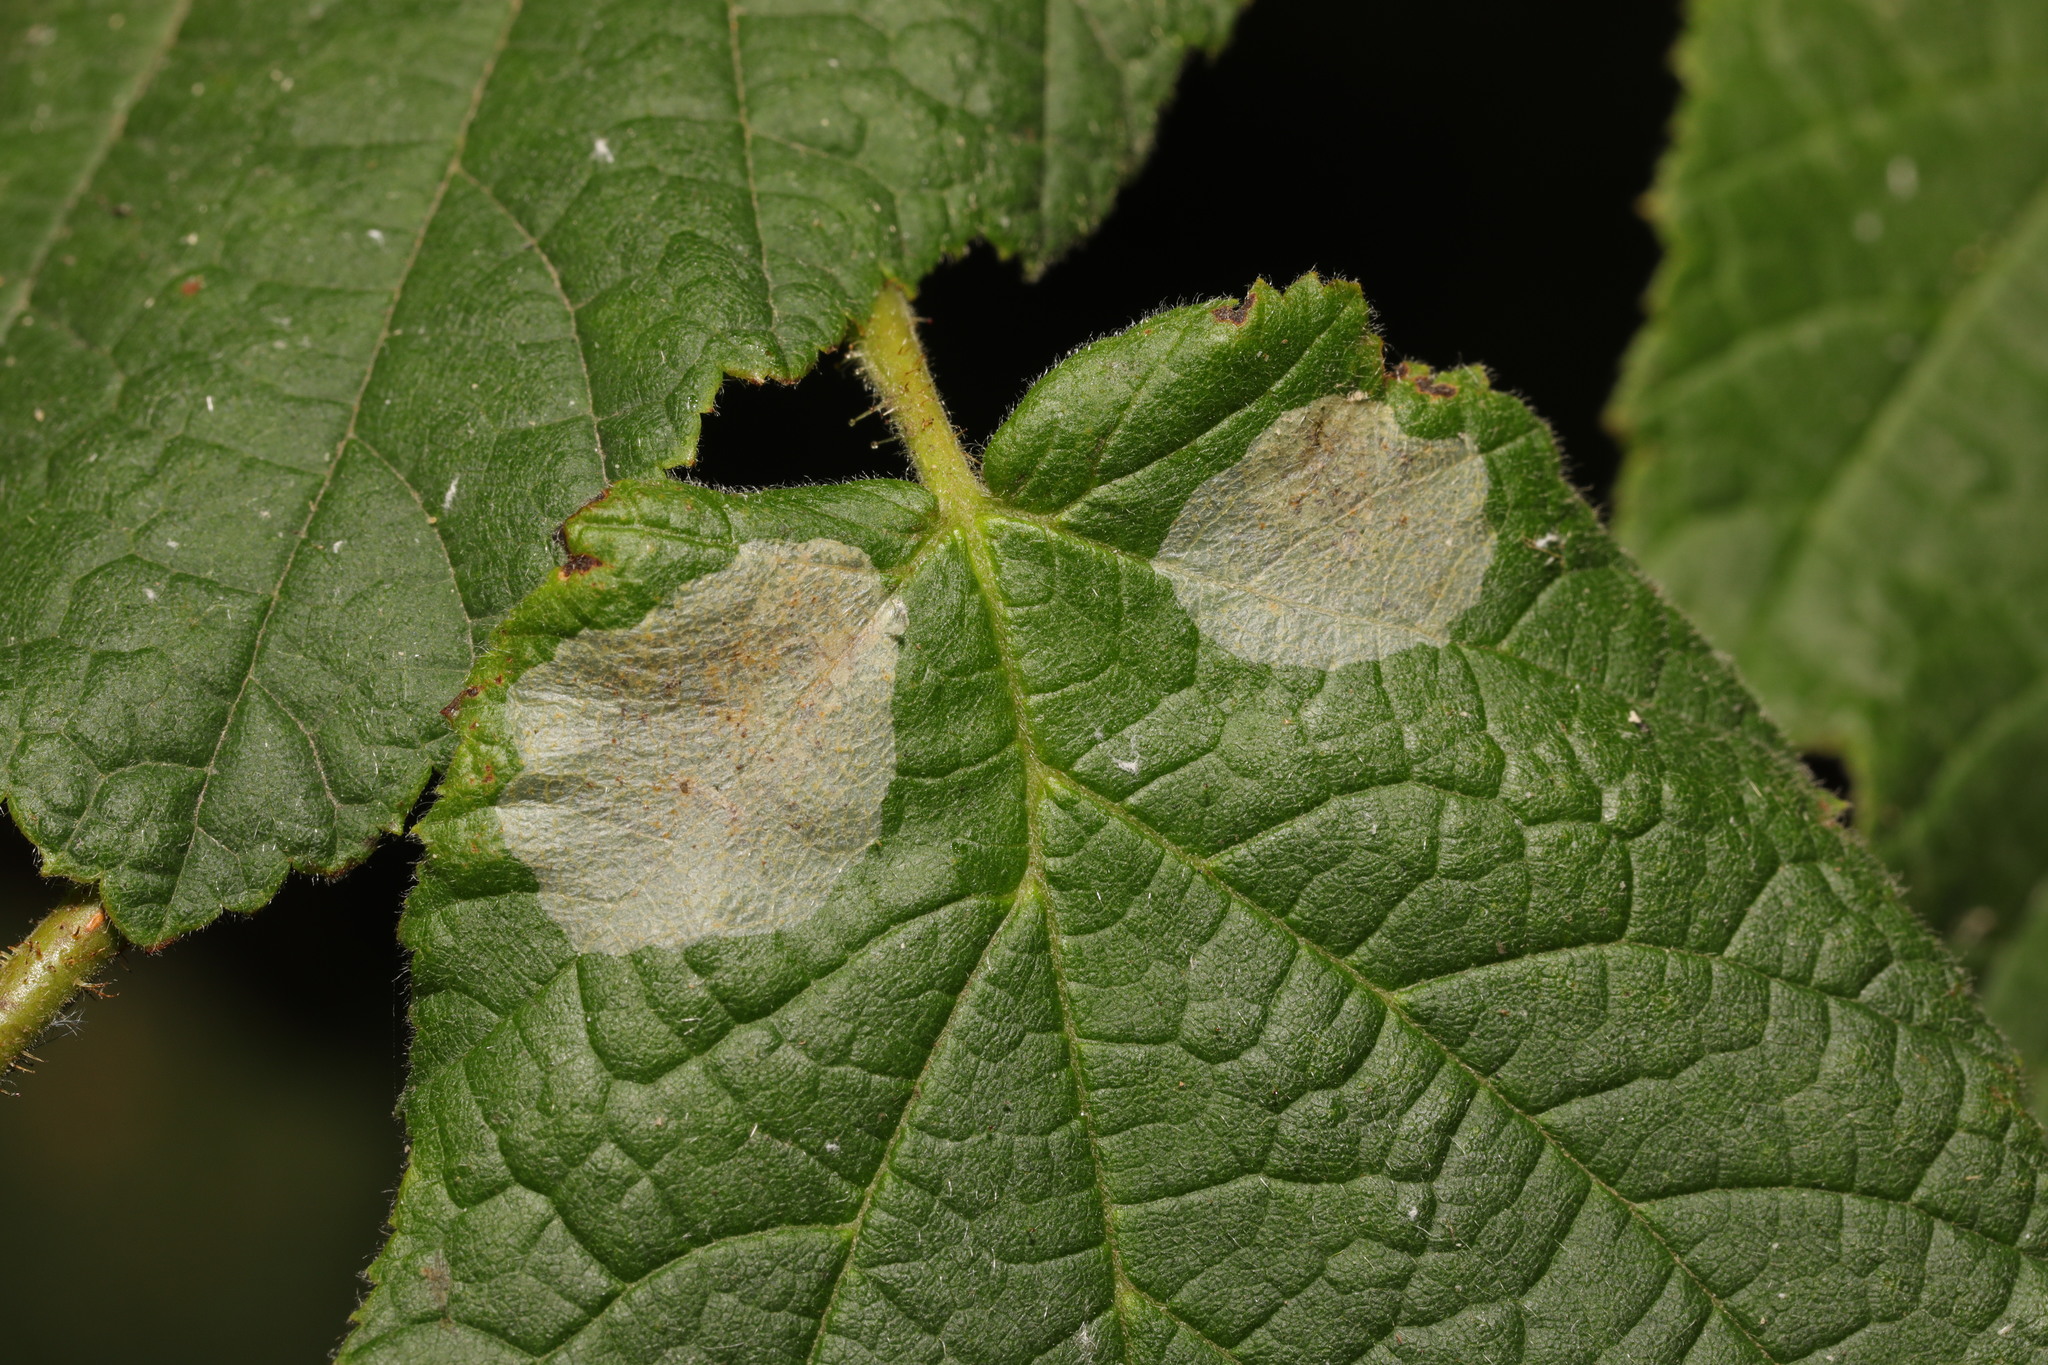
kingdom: Animalia
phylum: Arthropoda
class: Insecta
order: Lepidoptera
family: Gracillariidae
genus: Phyllonorycter
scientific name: Phyllonorycter coryli
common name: Nut-leaf blister moth
